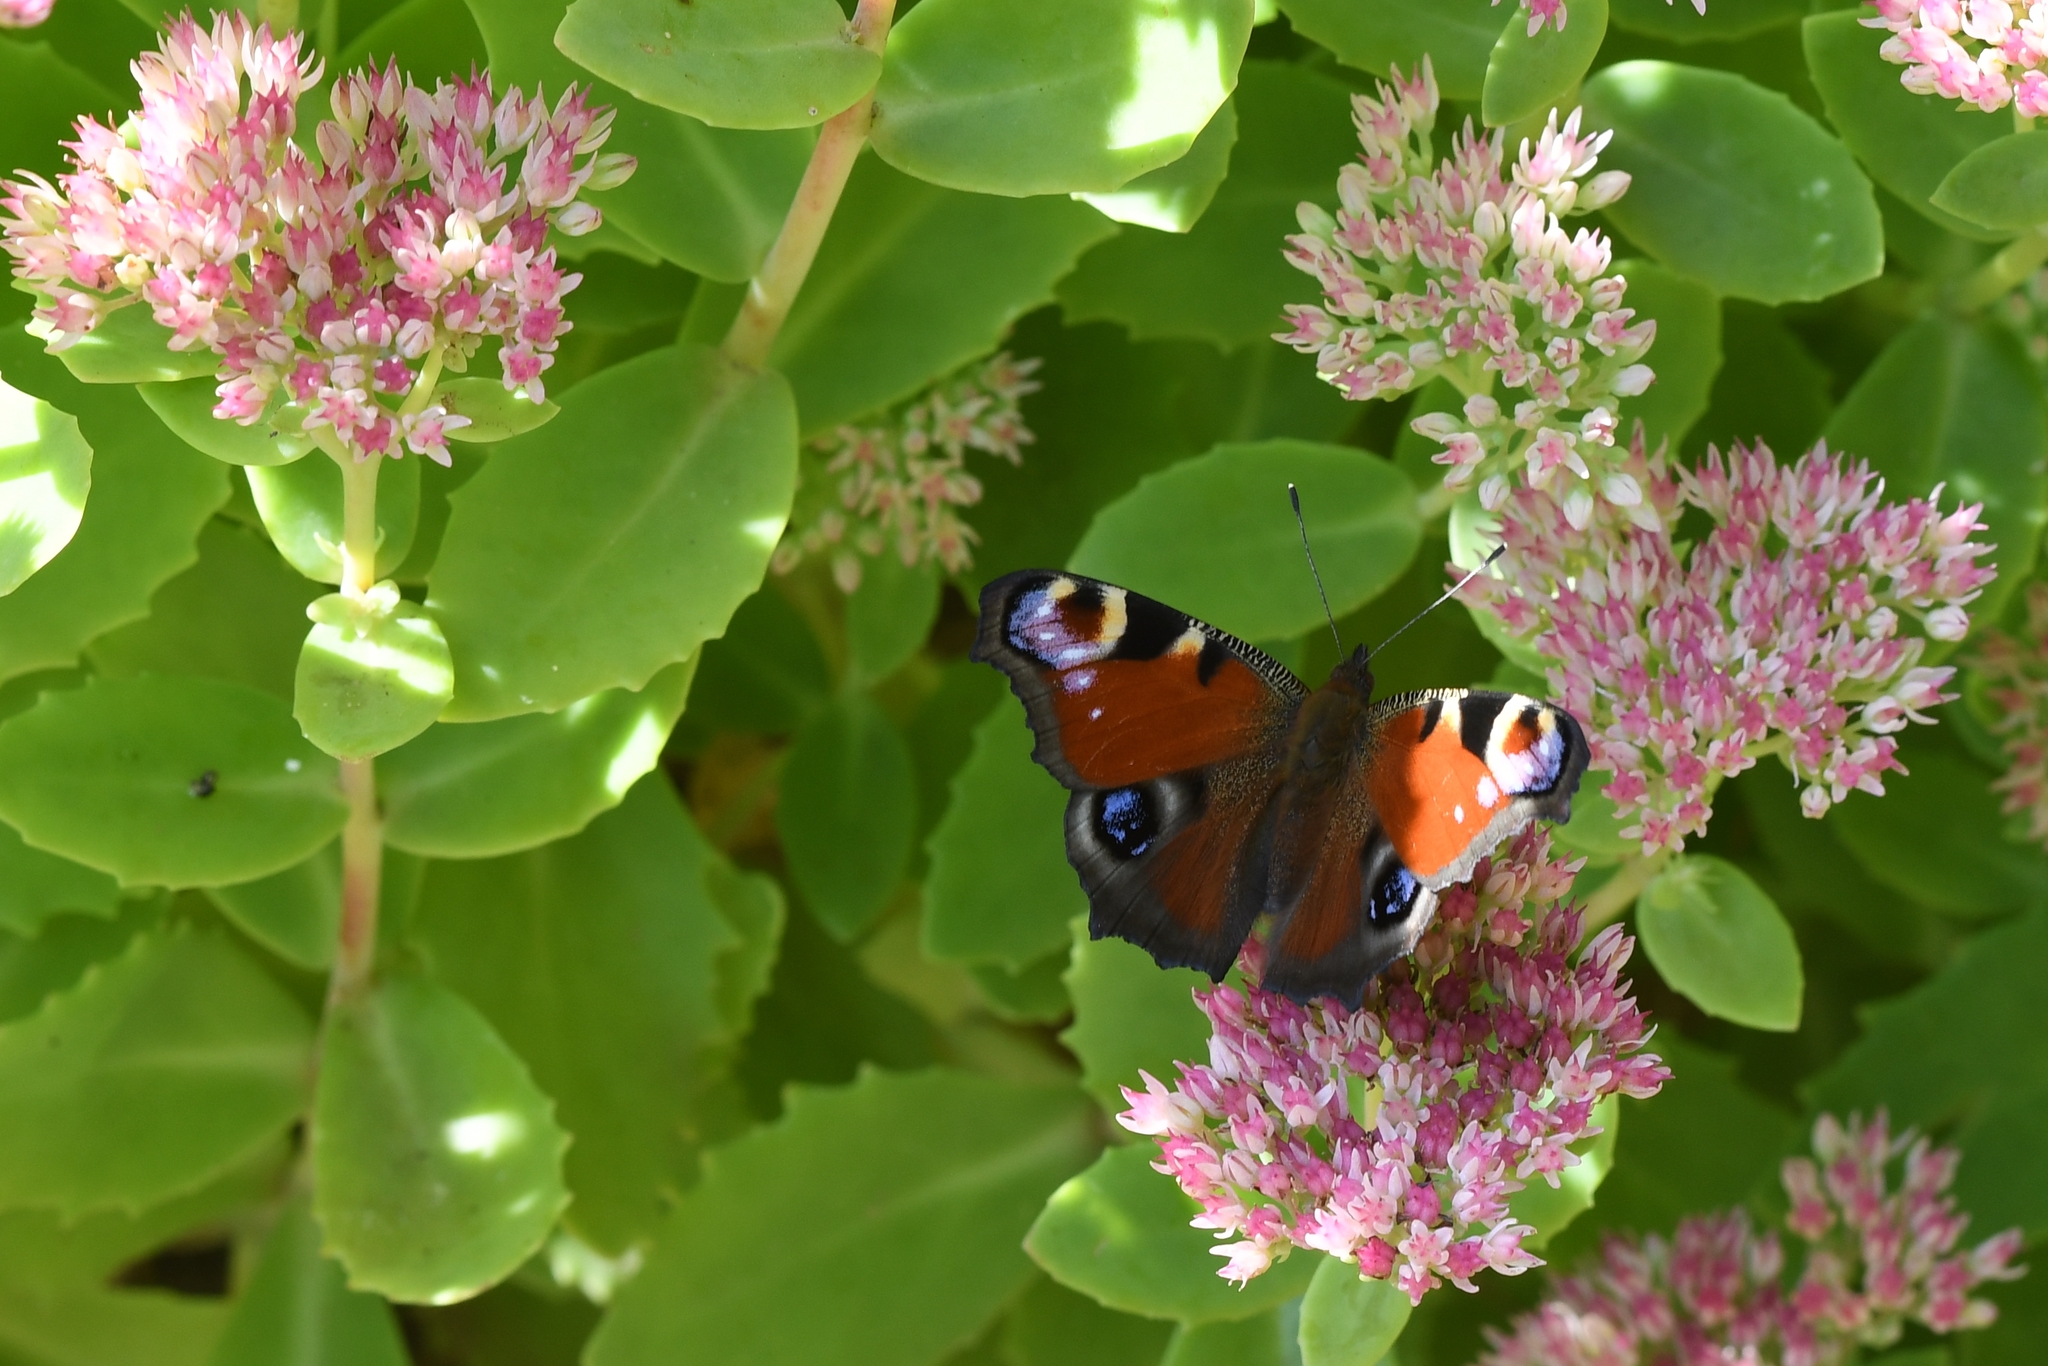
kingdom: Animalia
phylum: Arthropoda
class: Insecta
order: Lepidoptera
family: Nymphalidae
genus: Aglais
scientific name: Aglais io
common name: Peacock
